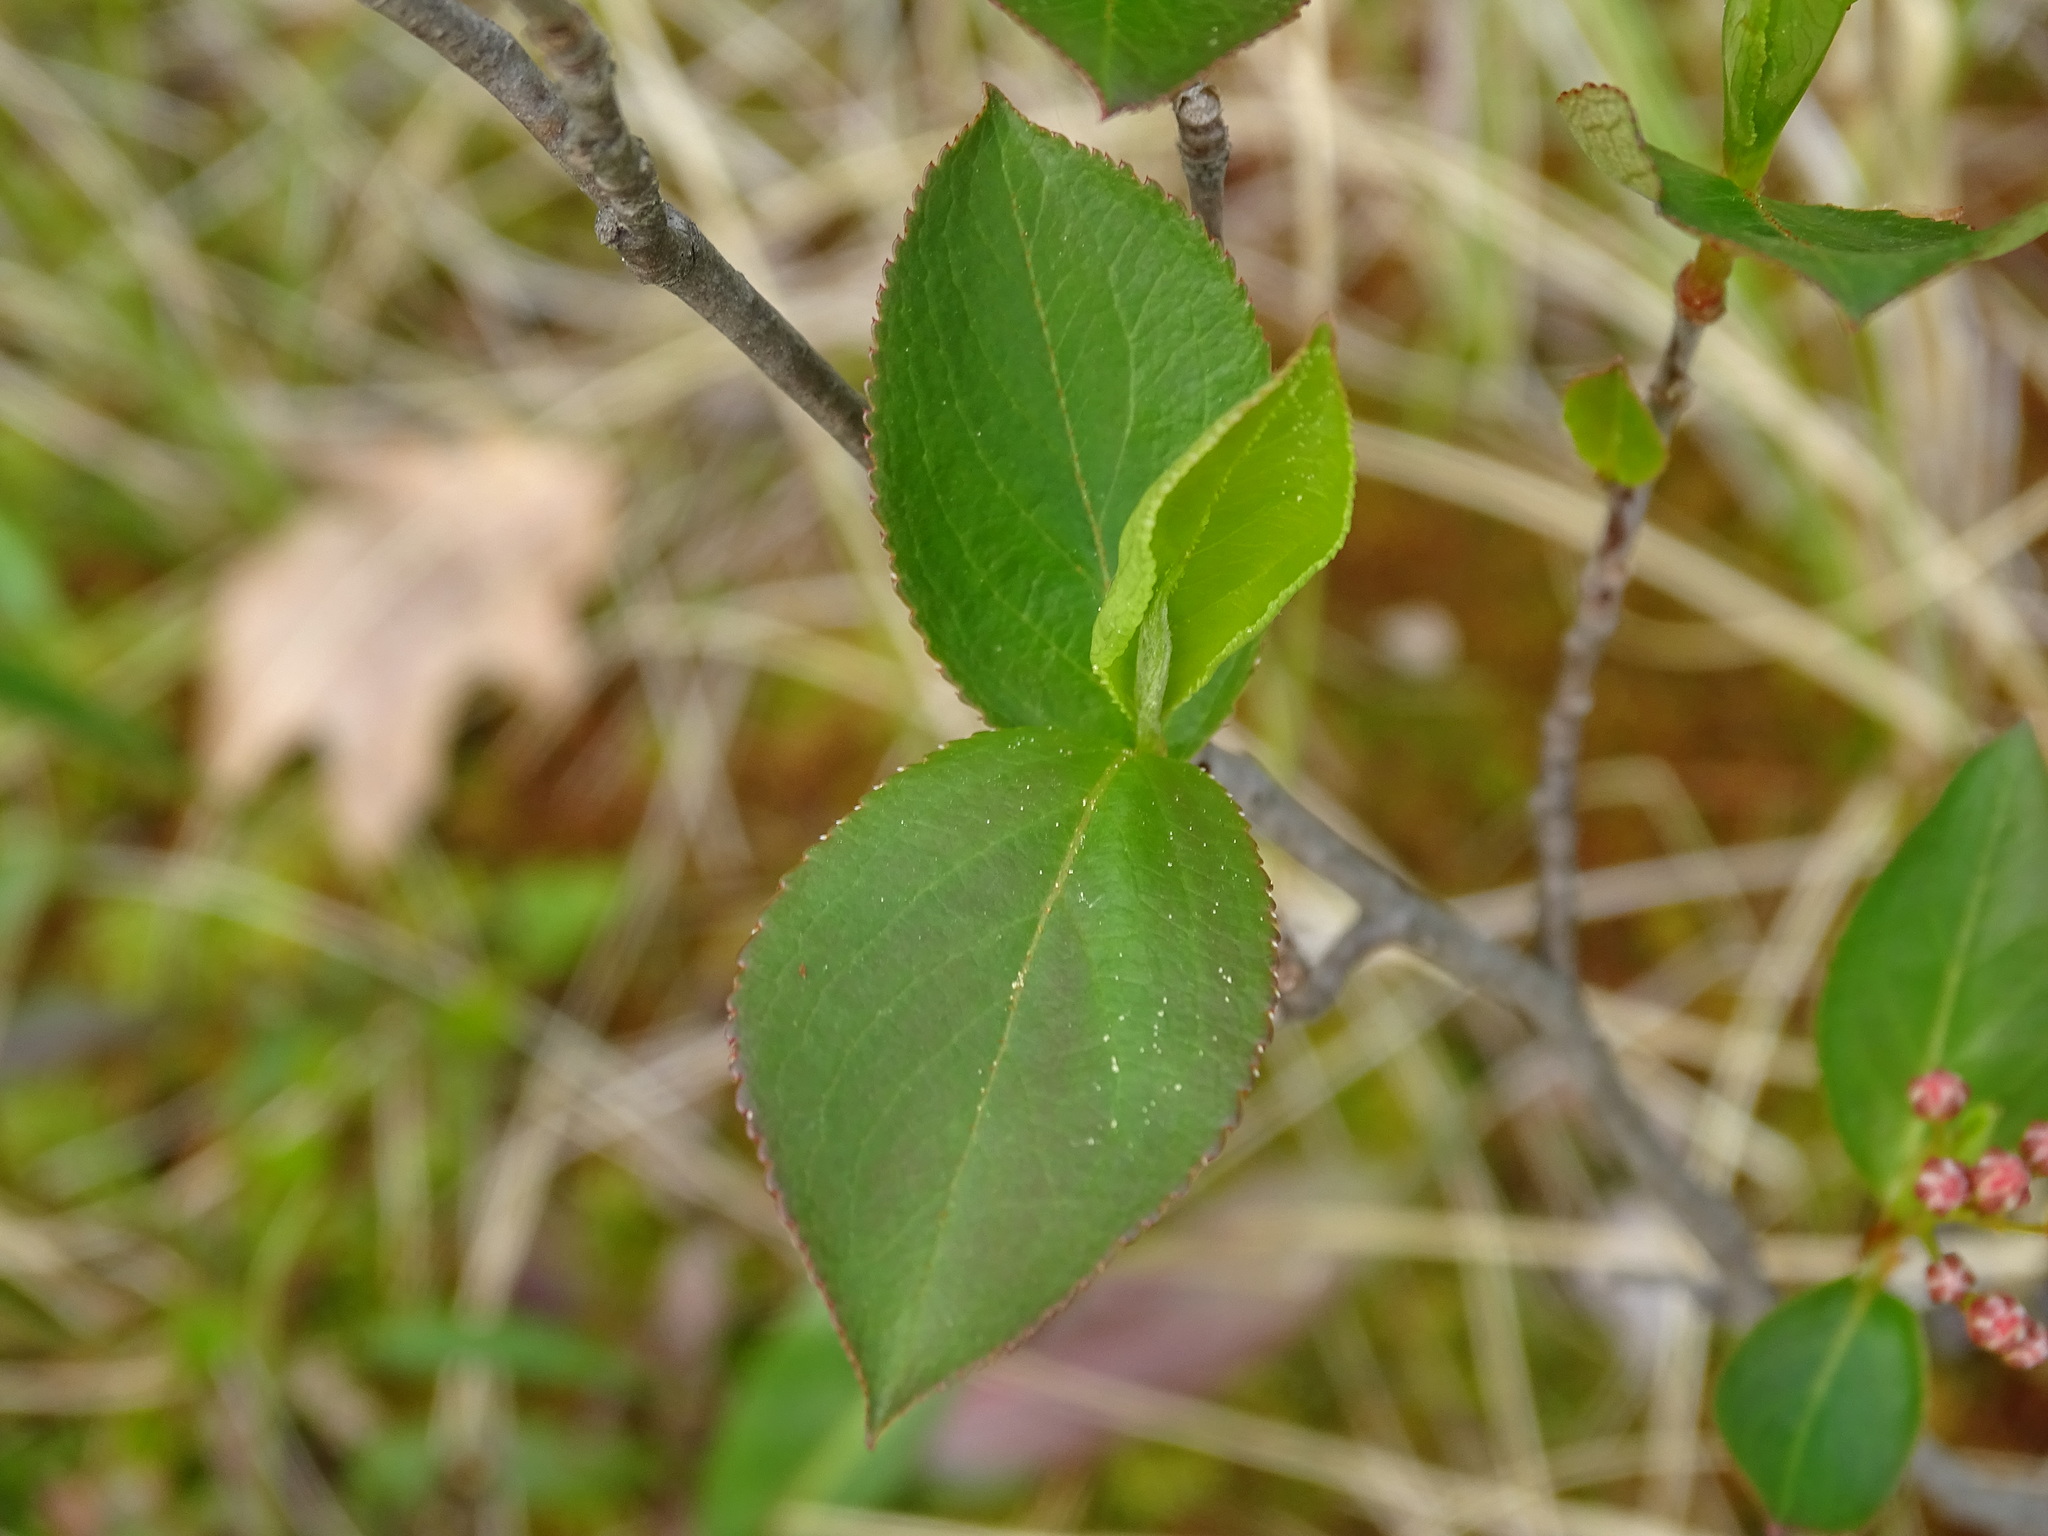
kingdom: Plantae
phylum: Tracheophyta
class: Magnoliopsida
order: Rosales
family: Rosaceae
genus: Aronia
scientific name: Aronia melanocarpa
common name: Black chokeberry
